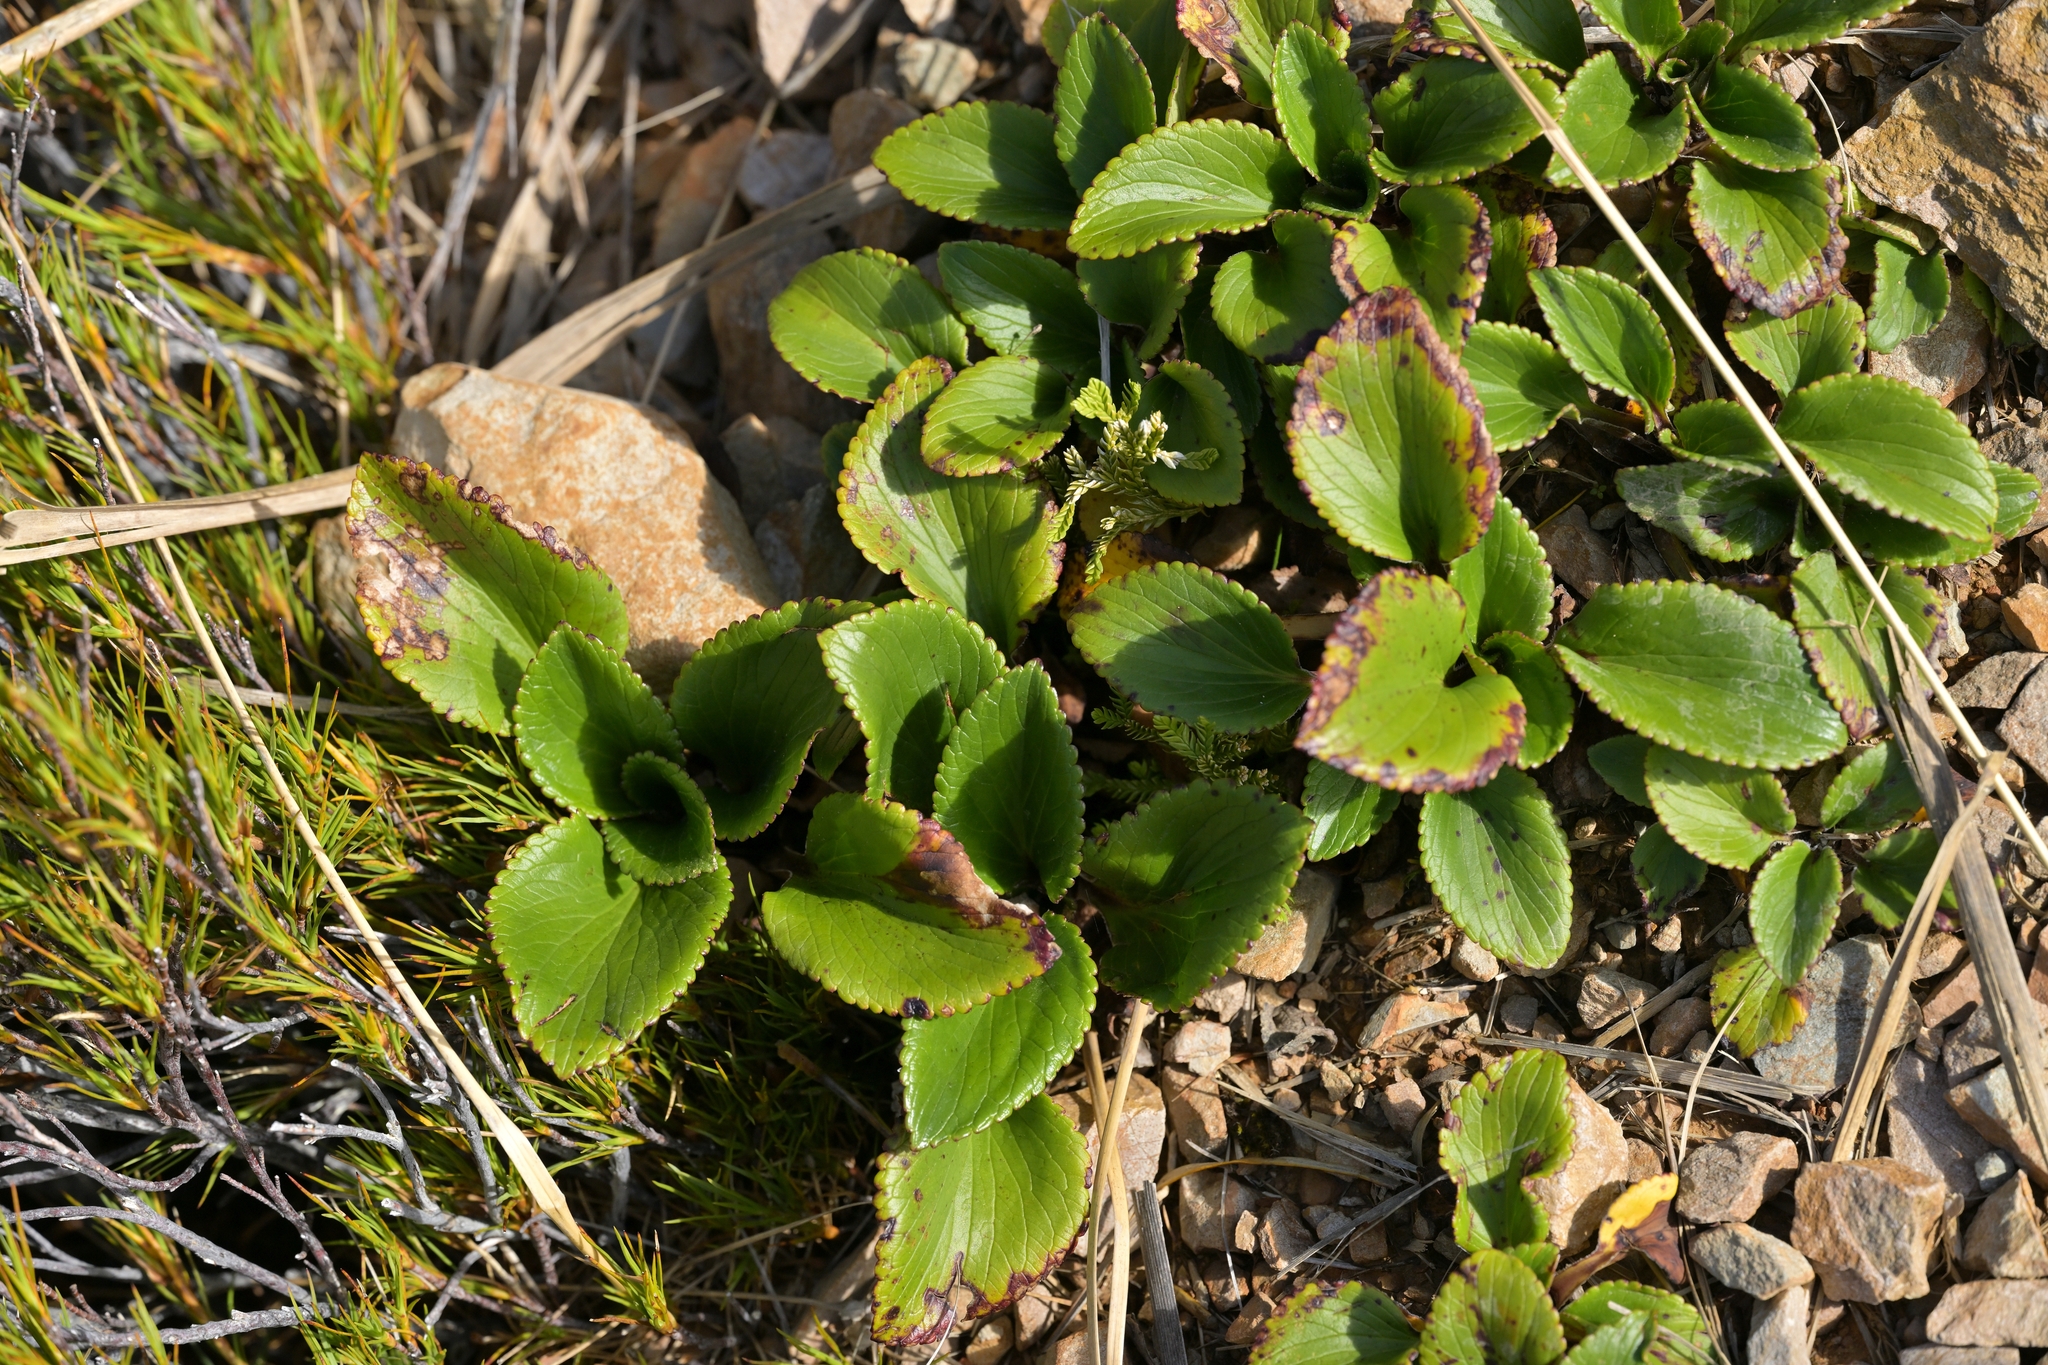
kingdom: Plantae
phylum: Tracheophyta
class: Magnoliopsida
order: Lamiales
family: Plantaginaceae
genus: Ourisia
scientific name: Ourisia calycina
